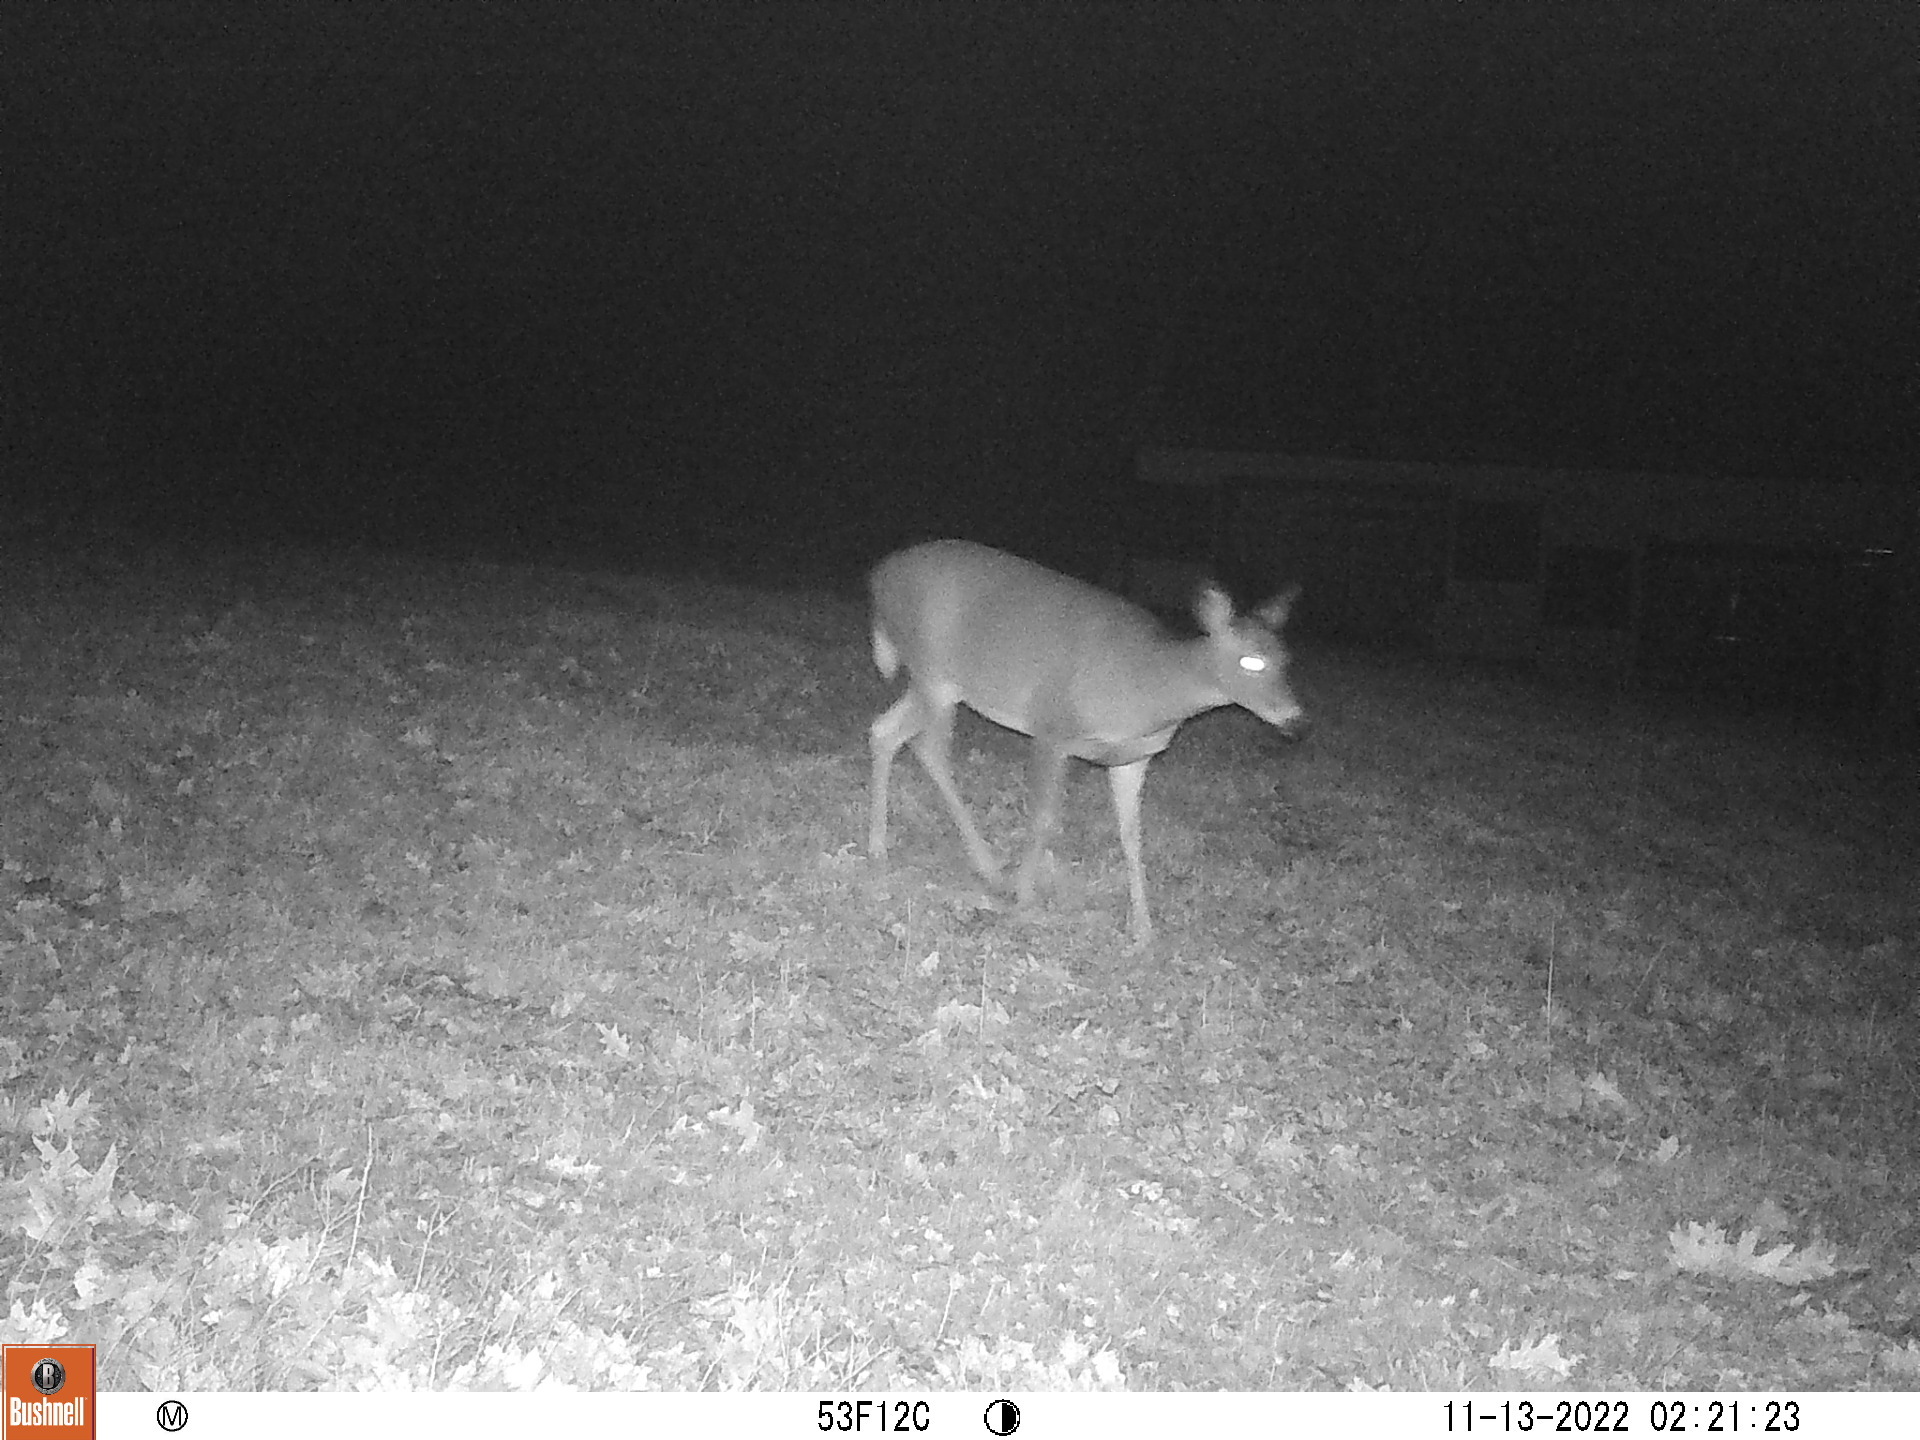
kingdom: Animalia
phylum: Chordata
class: Mammalia
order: Artiodactyla
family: Cervidae
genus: Odocoileus
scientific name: Odocoileus virginianus
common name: White-tailed deer
